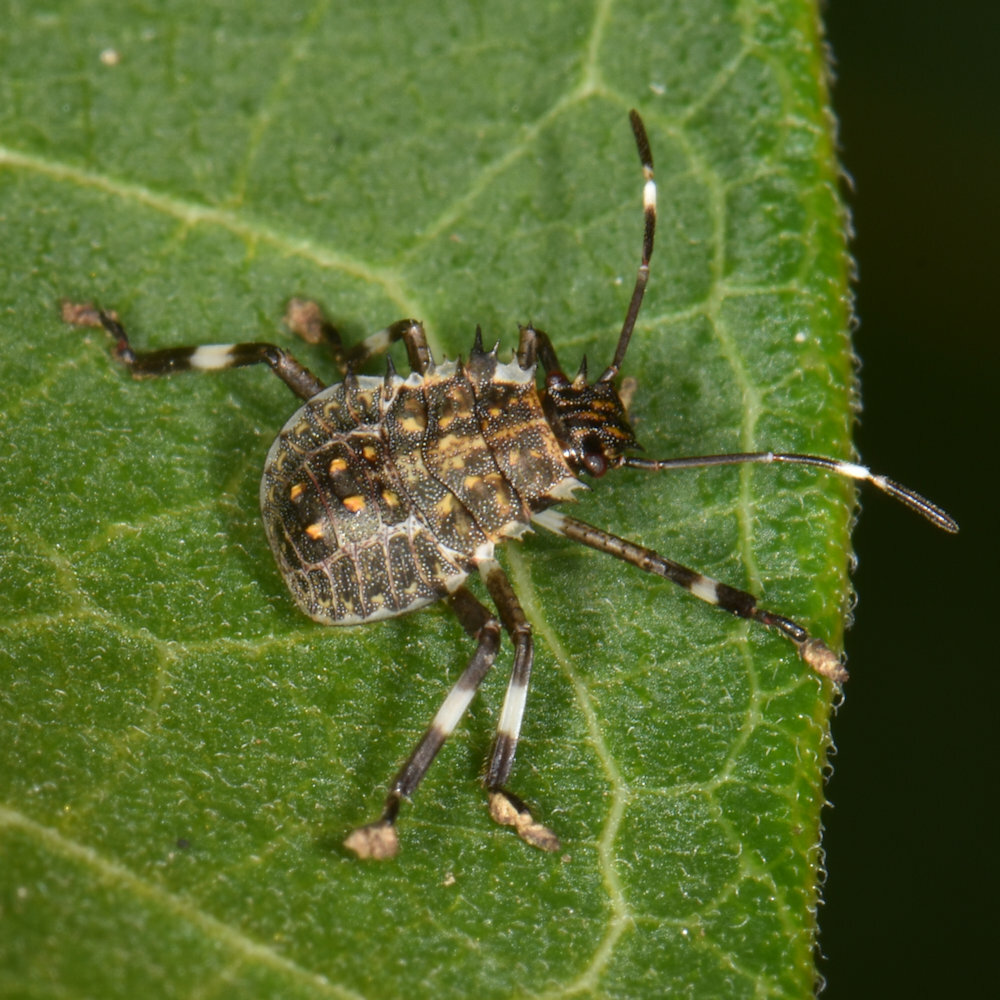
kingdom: Animalia
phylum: Arthropoda
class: Insecta
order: Hemiptera
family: Pentatomidae
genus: Halyomorpha
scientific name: Halyomorpha halys
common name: Brown marmorated stink bug
